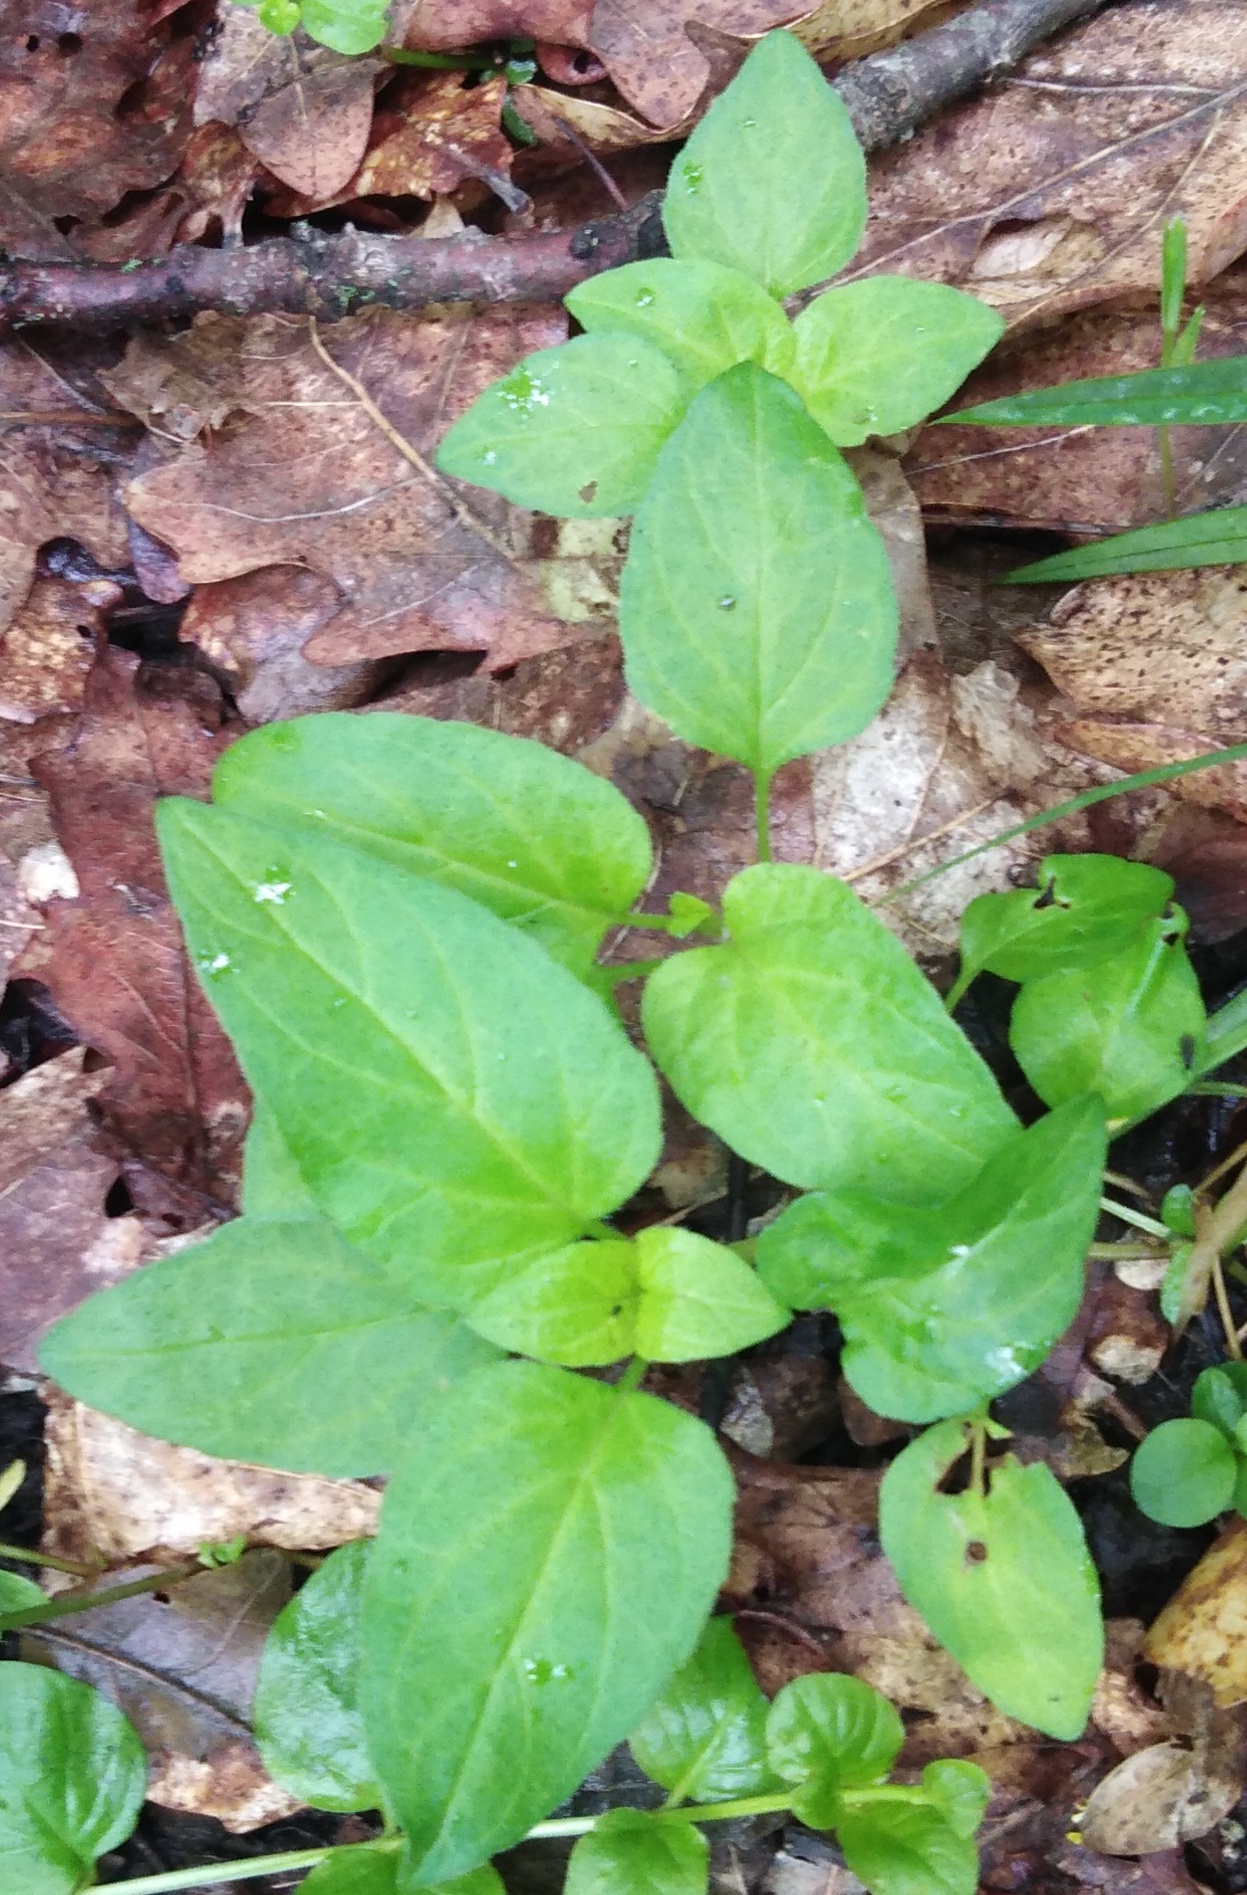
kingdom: Plantae
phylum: Tracheophyta
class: Magnoliopsida
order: Lamiales
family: Lamiaceae
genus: Prunella
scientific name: Prunella vulgaris
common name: Heal-all
